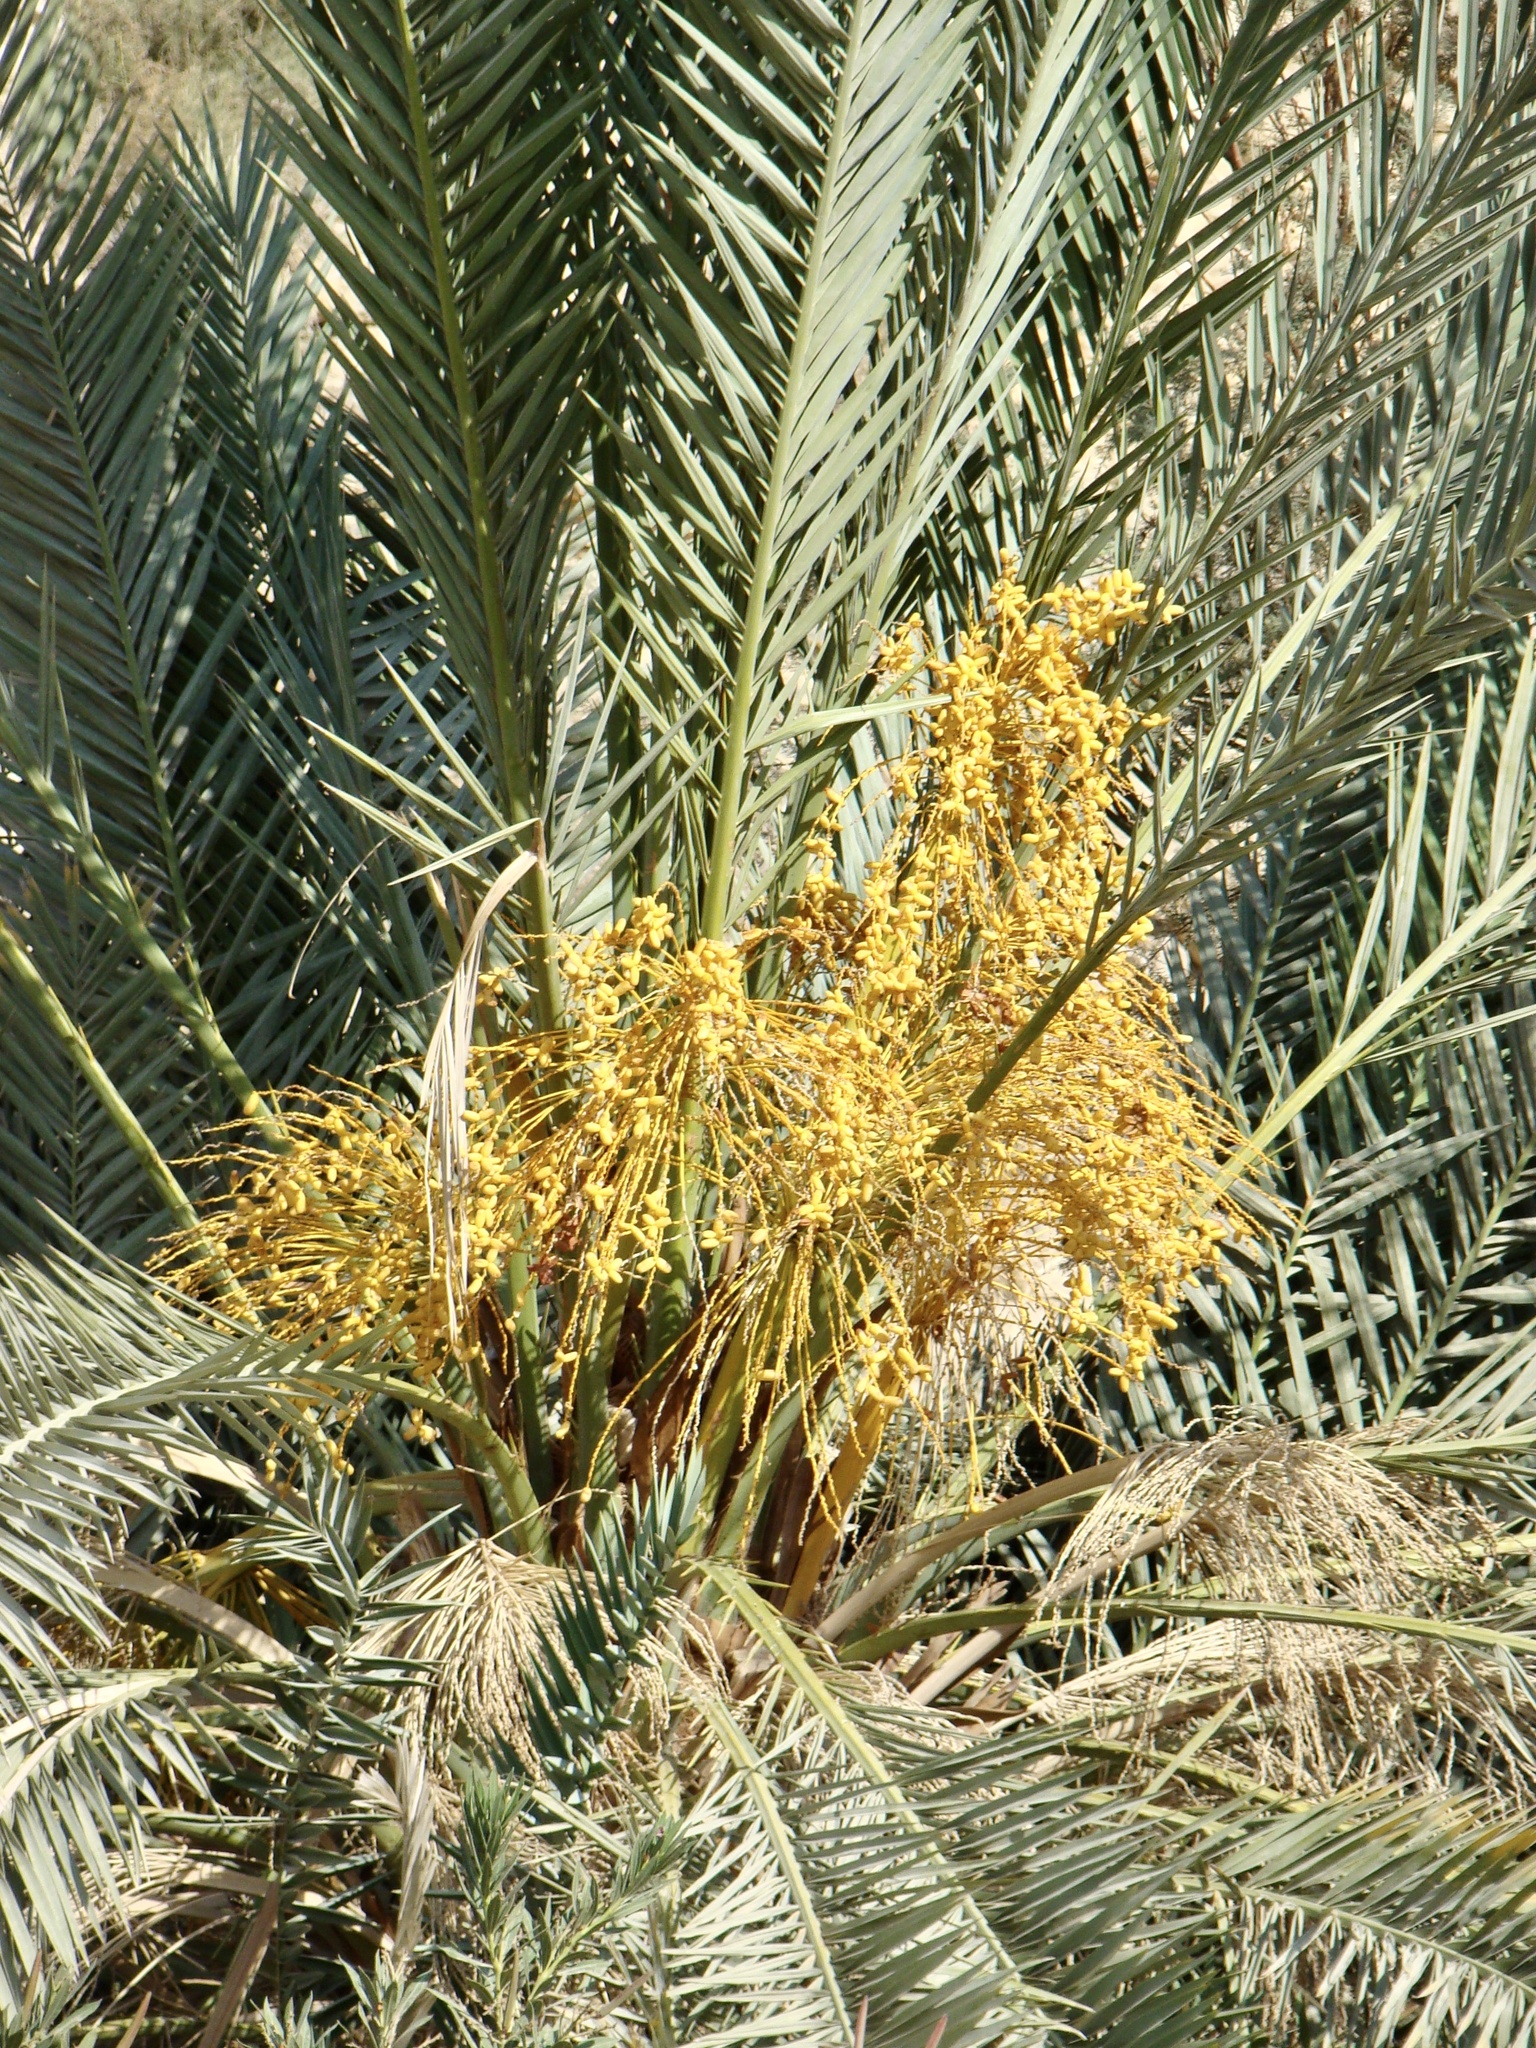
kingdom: Plantae
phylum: Tracheophyta
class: Liliopsida
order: Arecales
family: Arecaceae
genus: Phoenix
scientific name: Phoenix dactylifera
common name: Date palm
